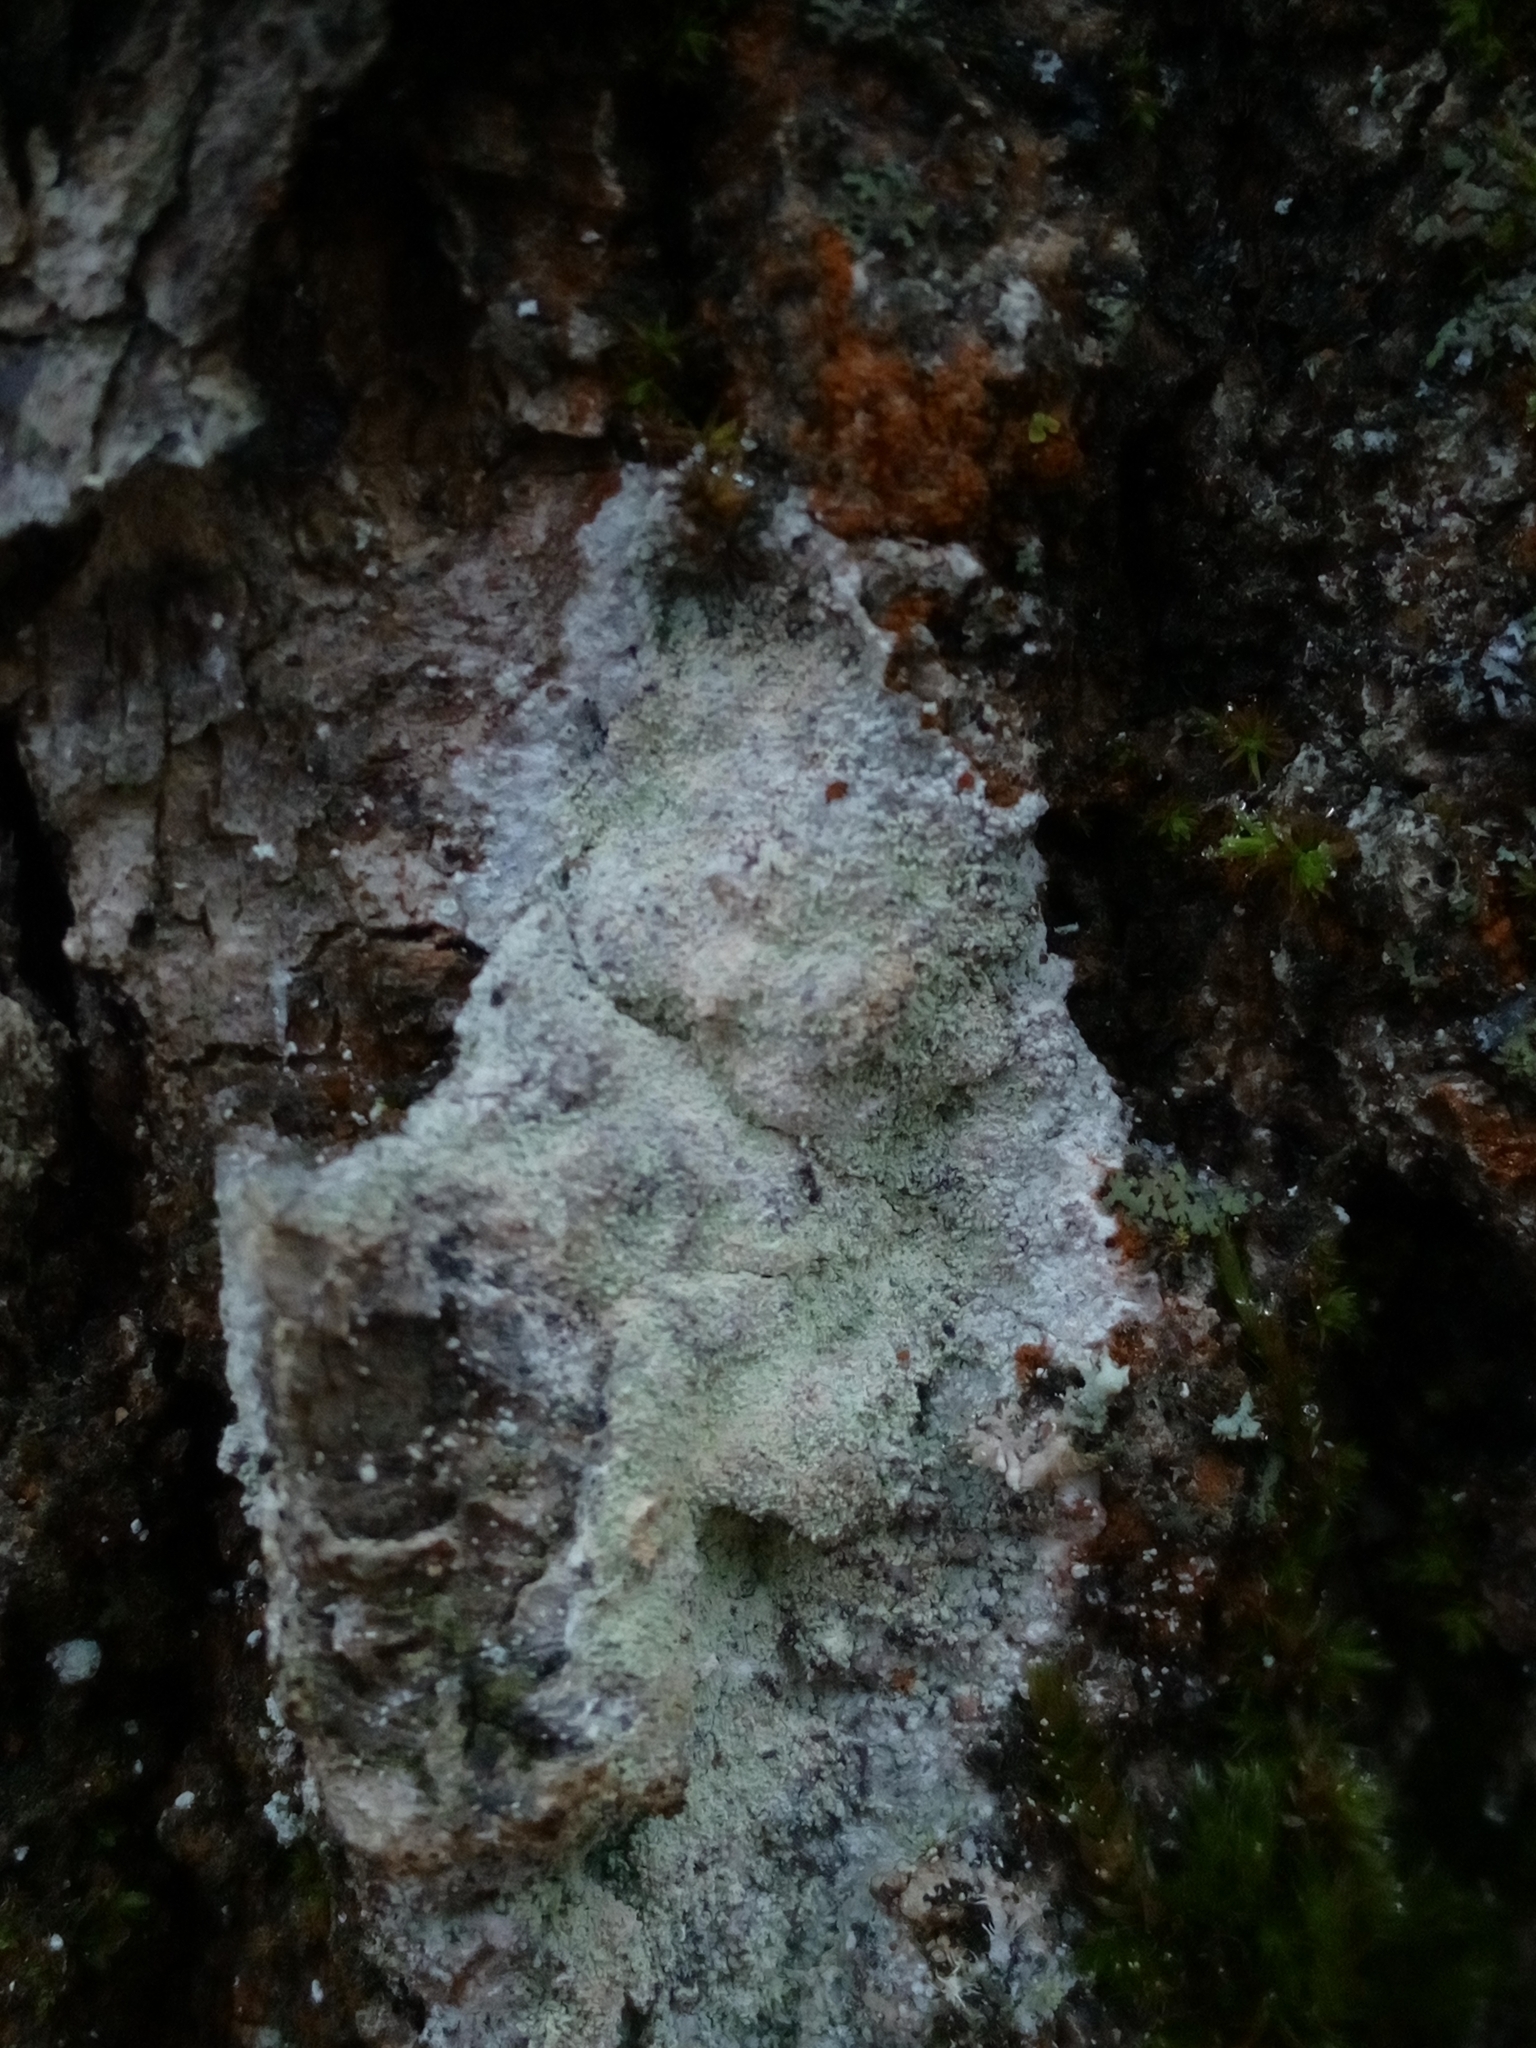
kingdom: Fungi
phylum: Ascomycota
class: Lecanoromycetes
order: Ostropales
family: Phlyctidaceae
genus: Phlyctis
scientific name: Phlyctis argena
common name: Whitewash lichen
